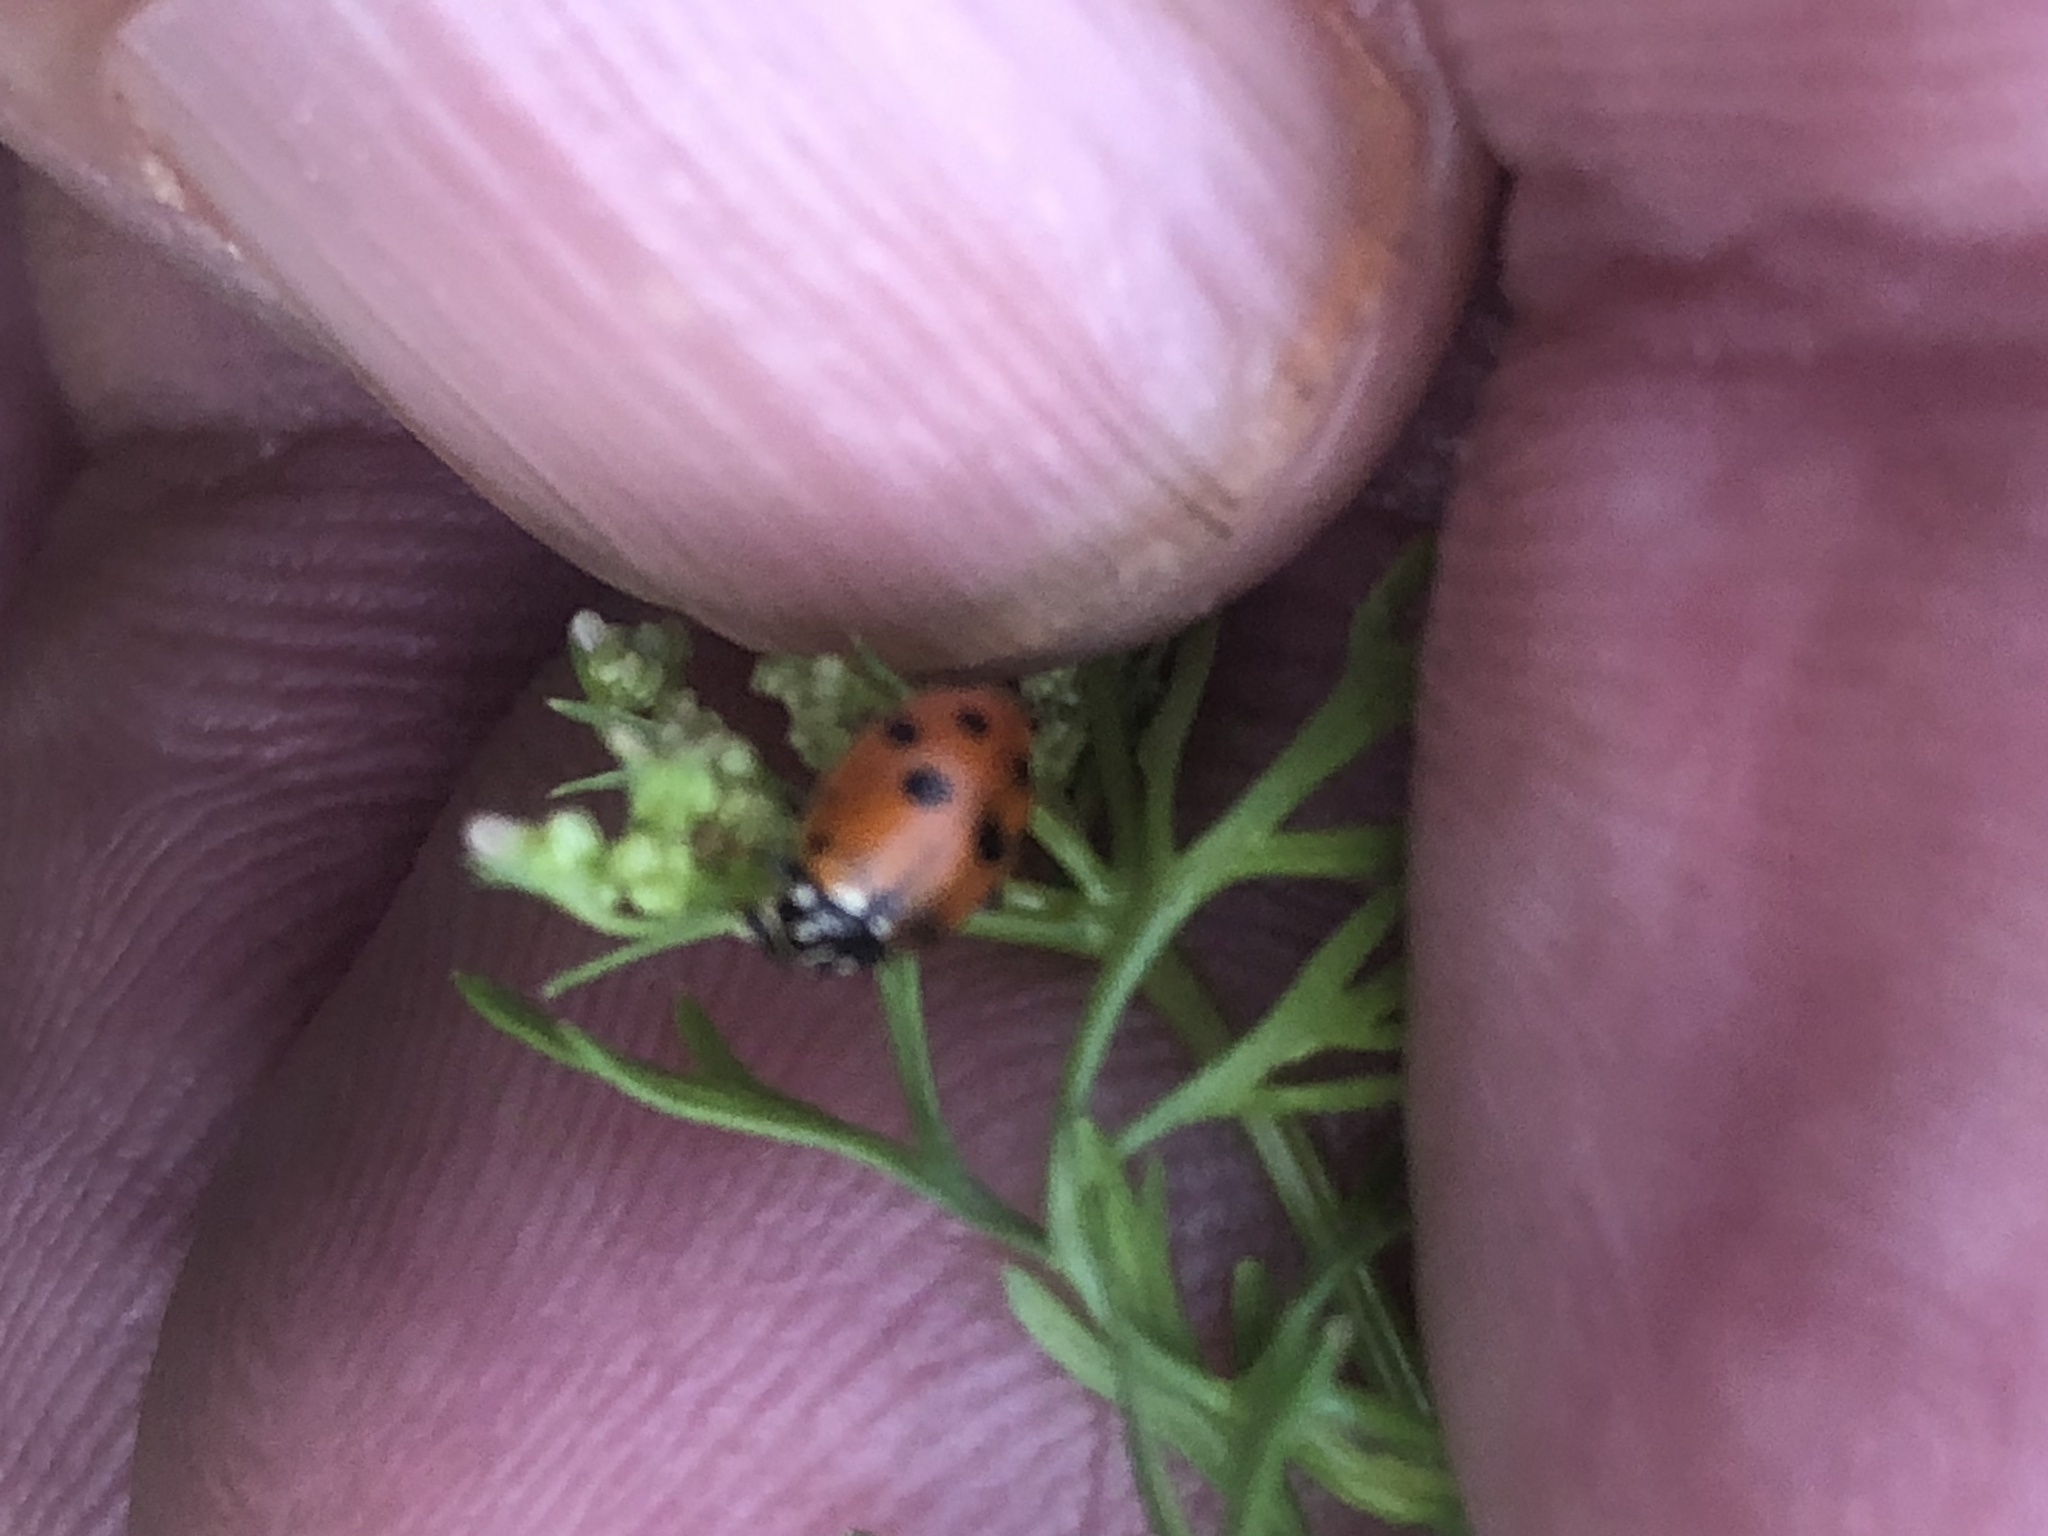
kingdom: Animalia
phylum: Arthropoda
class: Insecta
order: Coleoptera
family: Coccinellidae
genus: Hippodamia
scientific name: Hippodamia variegata
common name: Ladybird beetle
